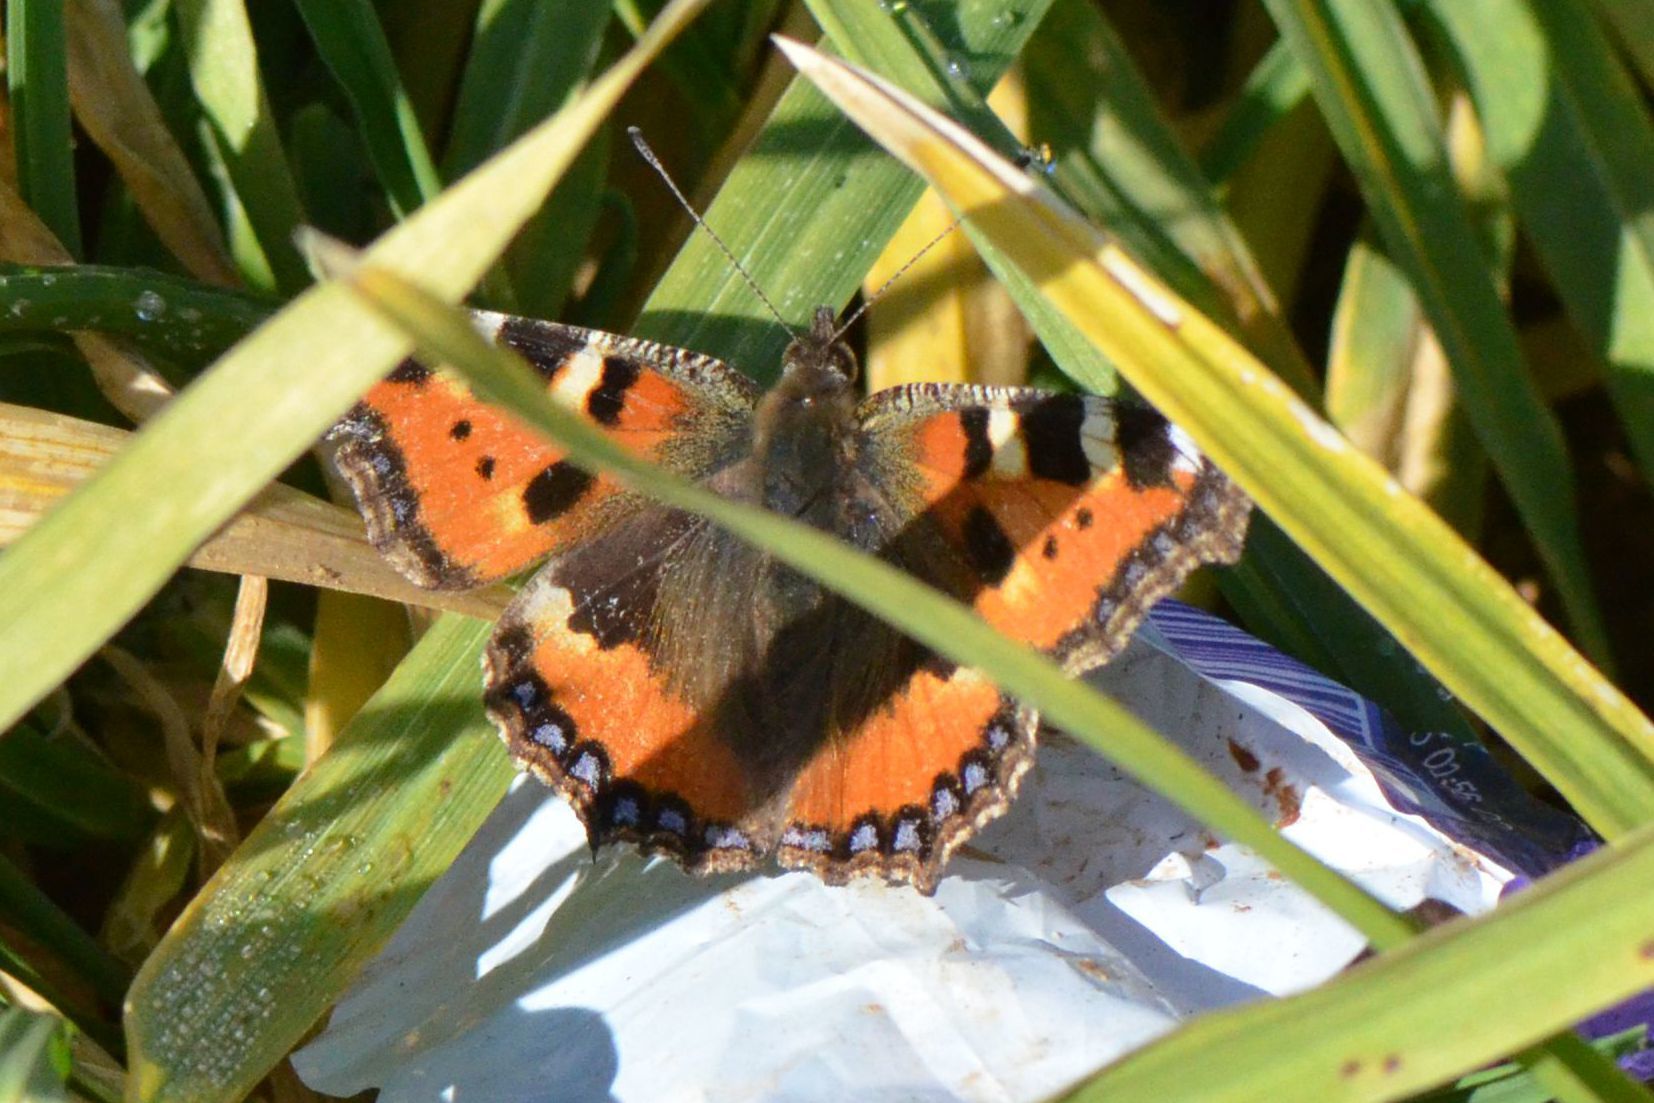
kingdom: Animalia
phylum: Arthropoda
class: Insecta
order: Lepidoptera
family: Nymphalidae
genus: Aglais
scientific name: Aglais urticae
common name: Small tortoiseshell
